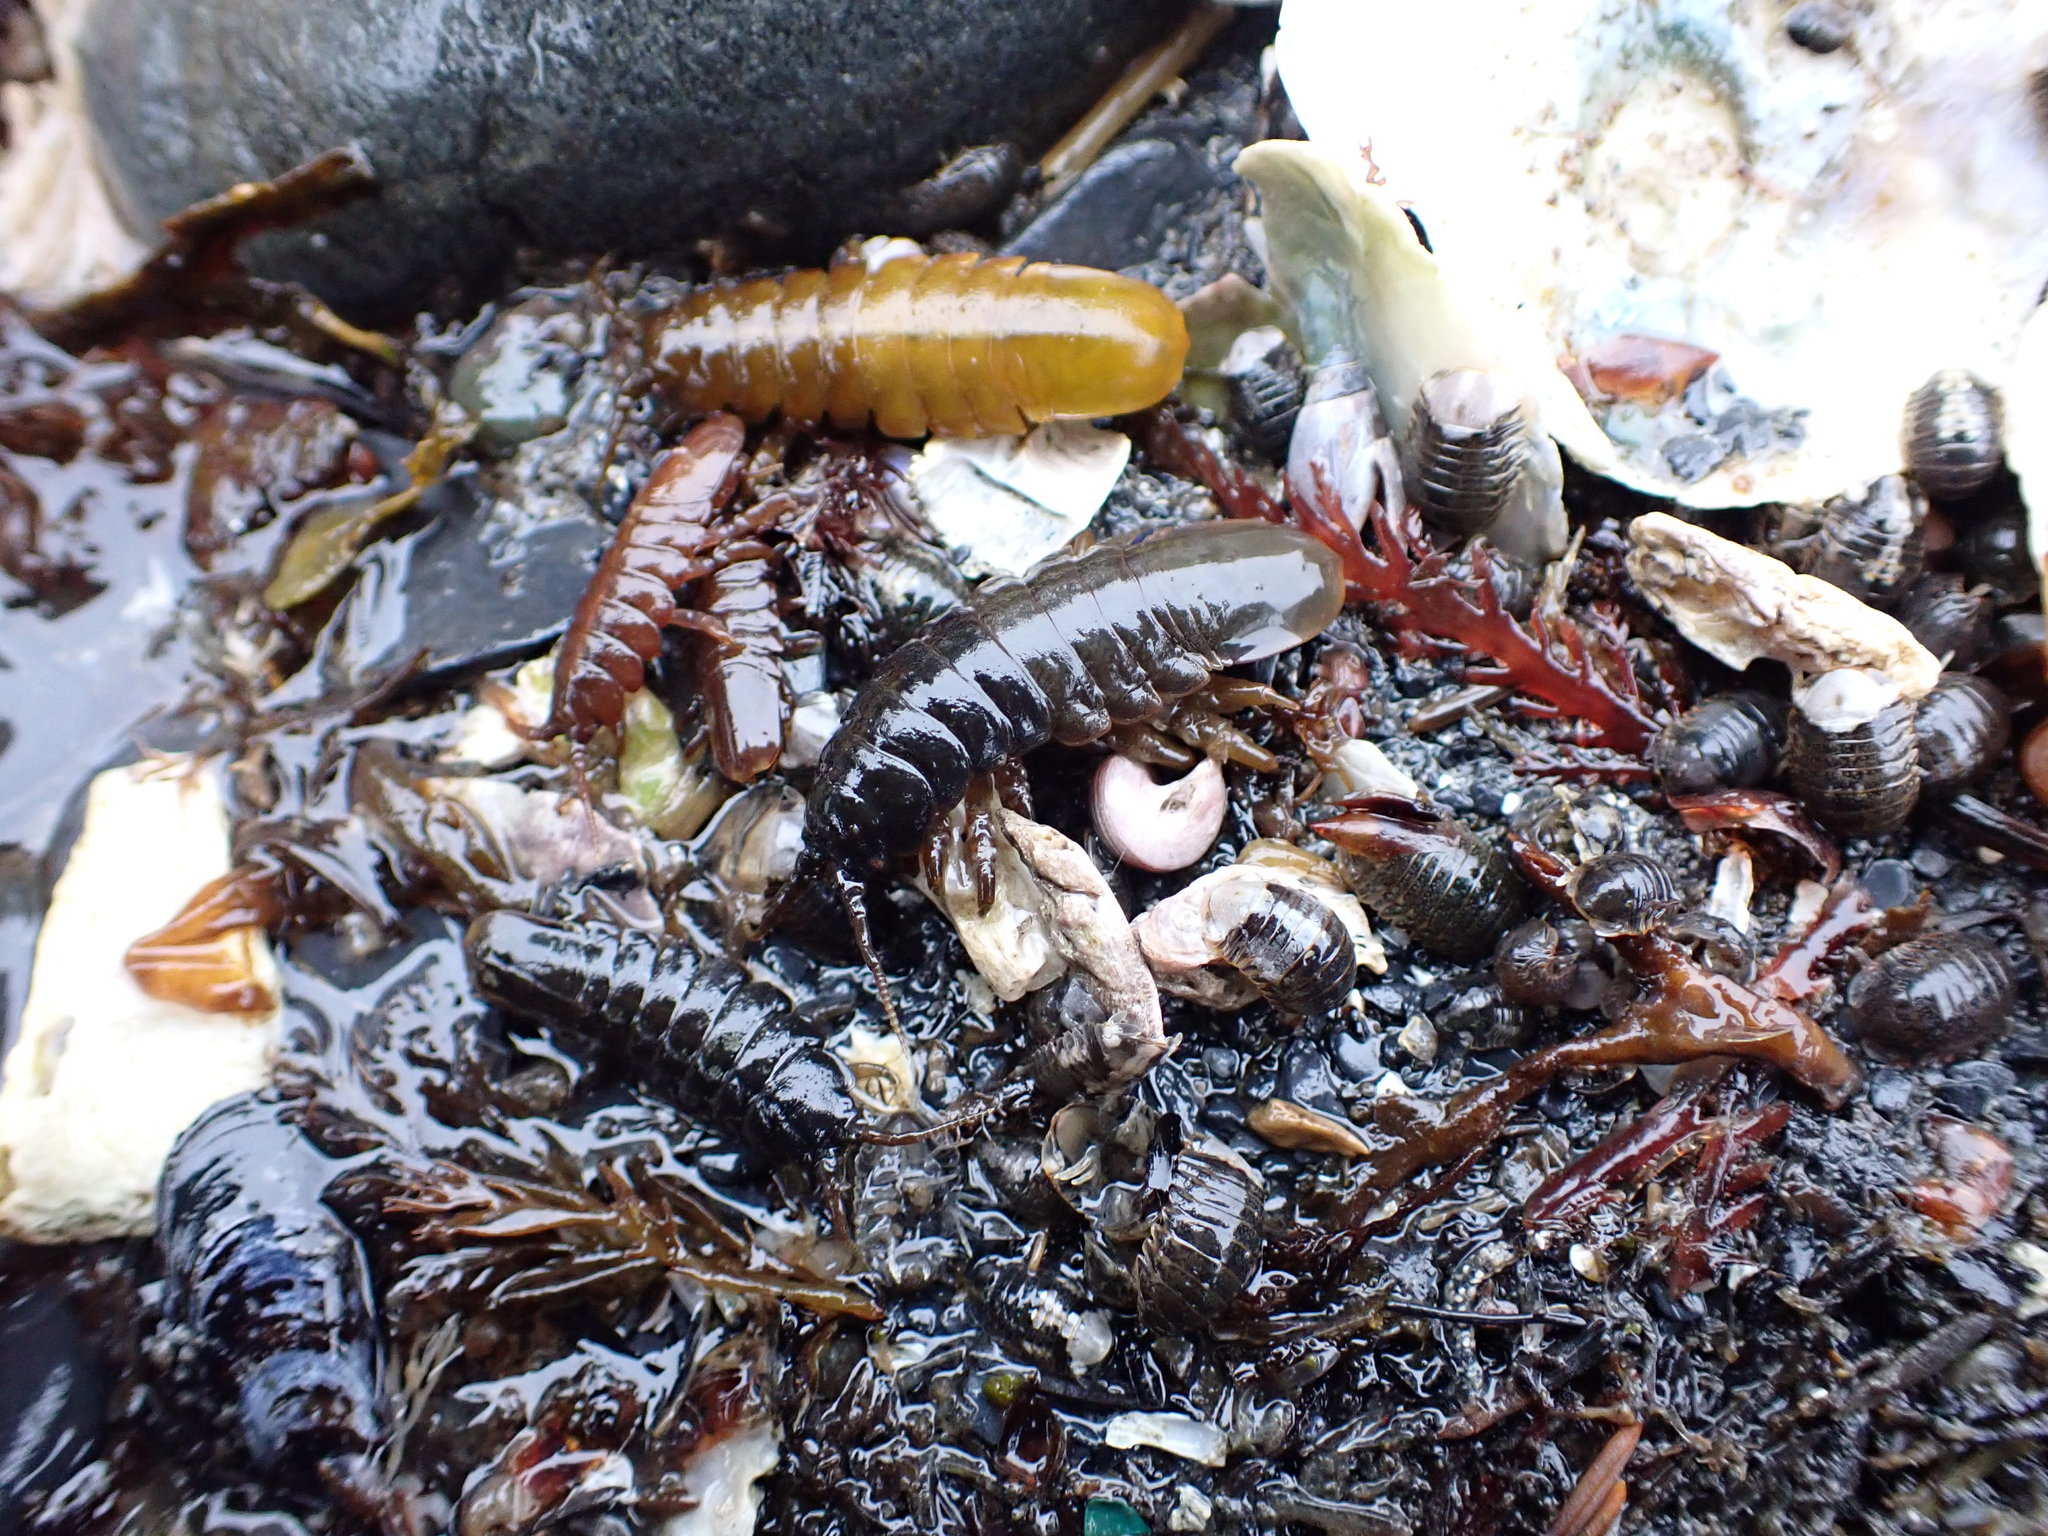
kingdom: Animalia
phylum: Arthropoda
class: Malacostraca
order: Isopoda
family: Idoteidae
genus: Pentidotea
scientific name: Pentidotea wosnesenskii
